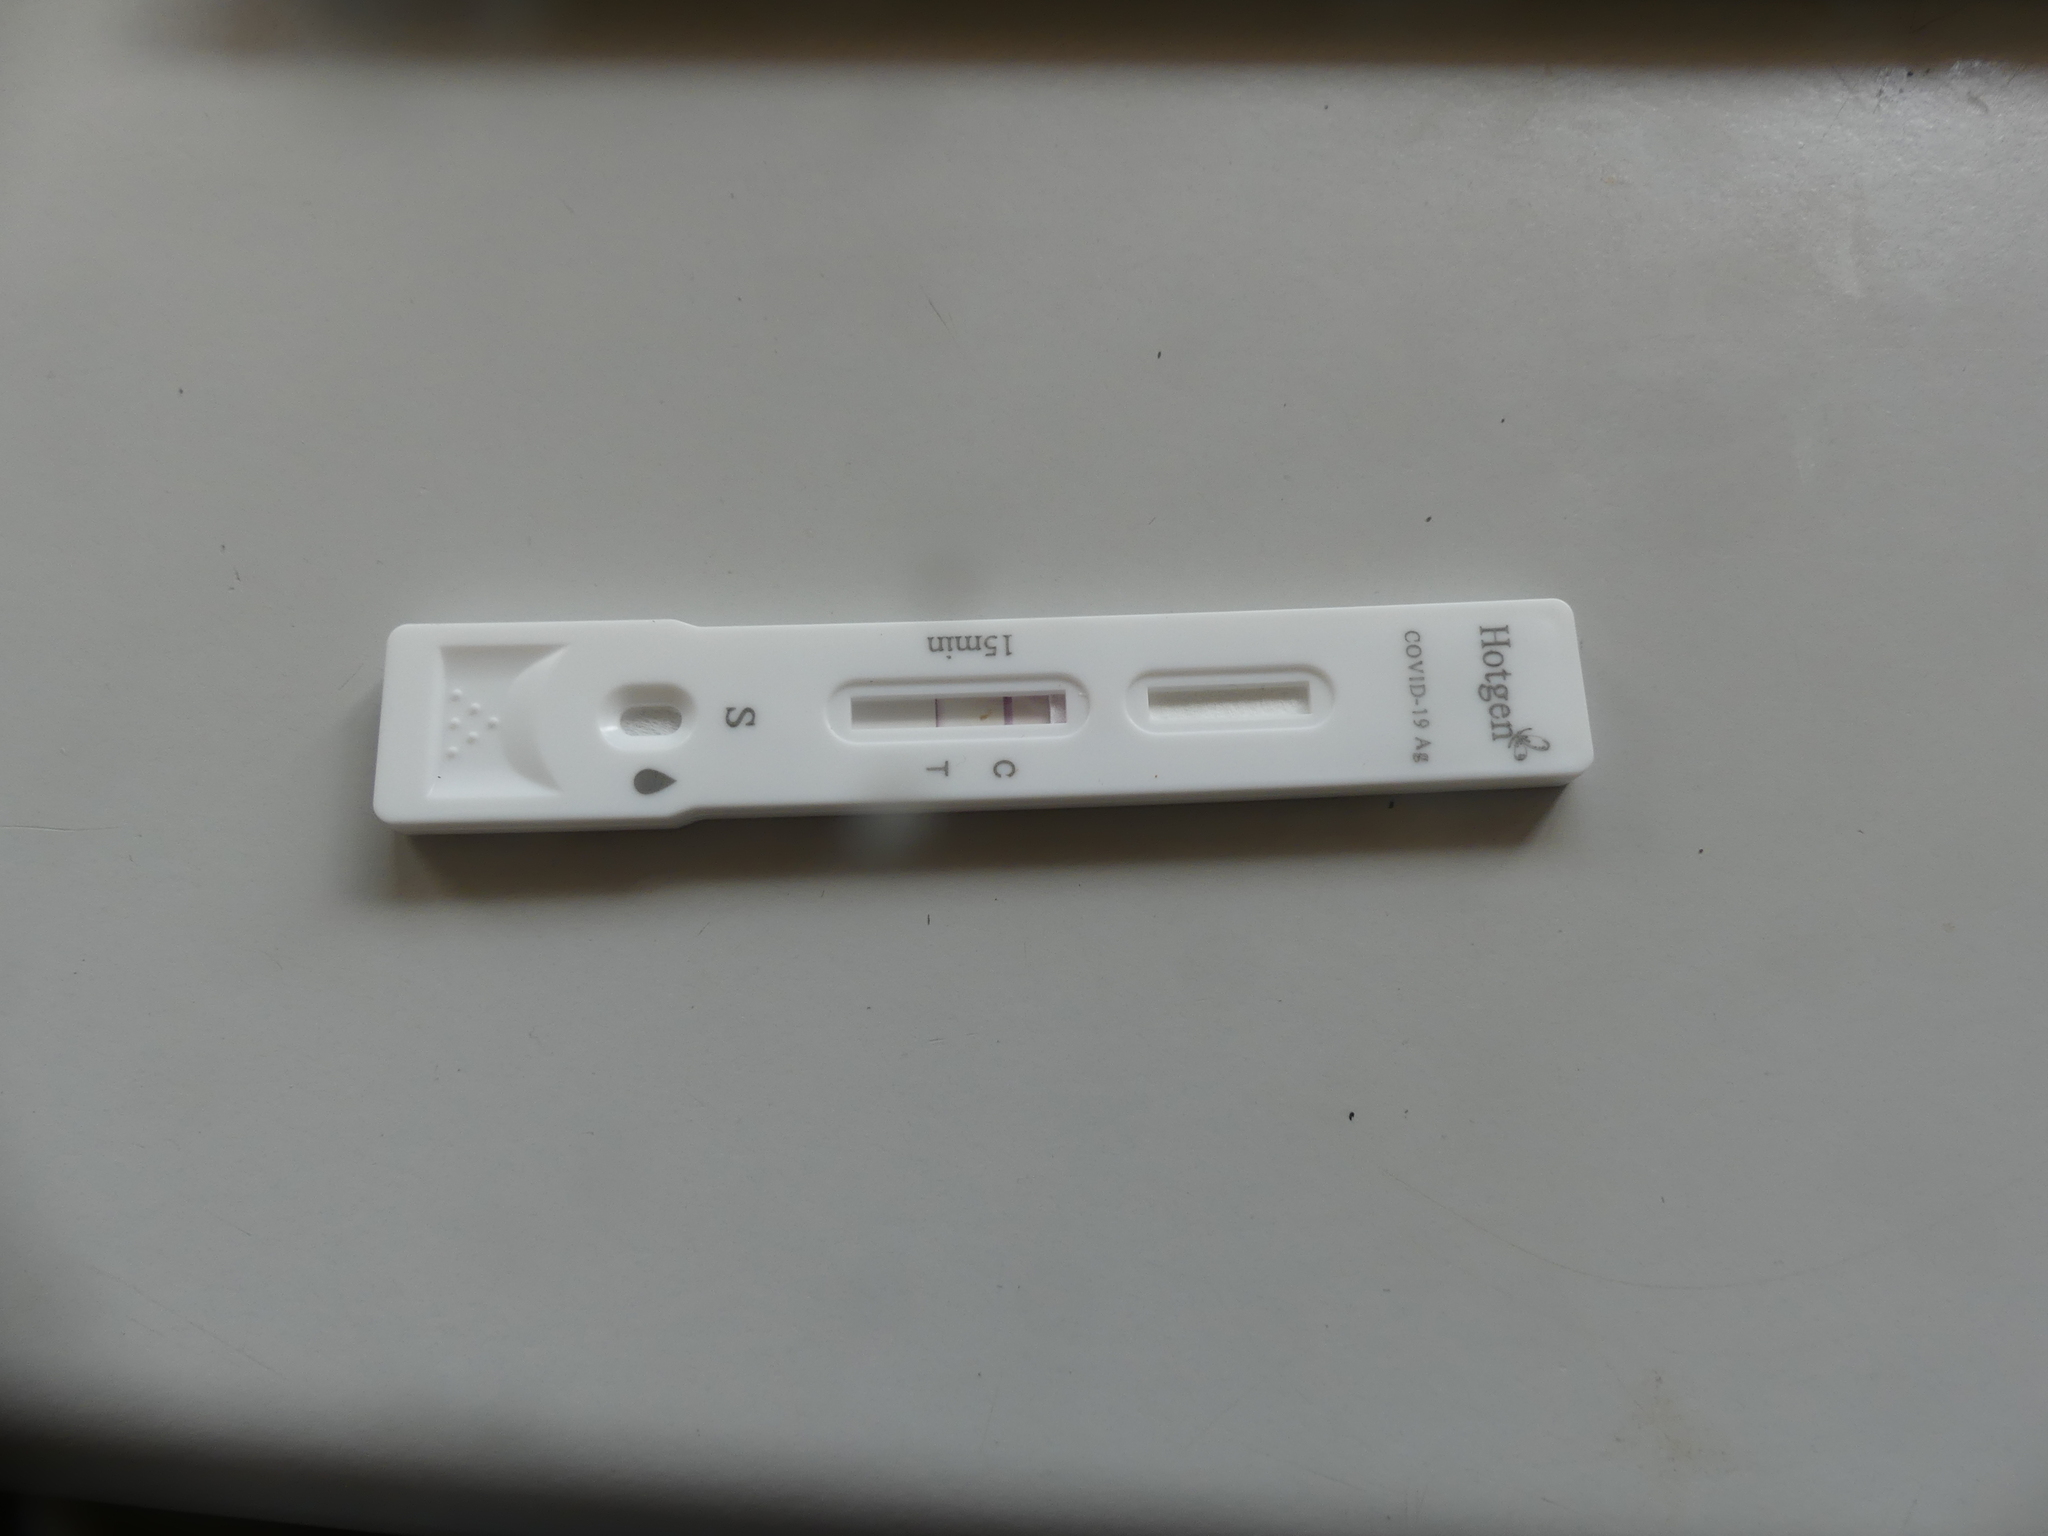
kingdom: Viruses
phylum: Pisuviricota
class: Pisoniviricetes
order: Nidovirales
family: Coronaviridae
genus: Betacoronavirus
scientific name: Betacoronavirus Severe acute respiratory syndrome-related coronavirus
